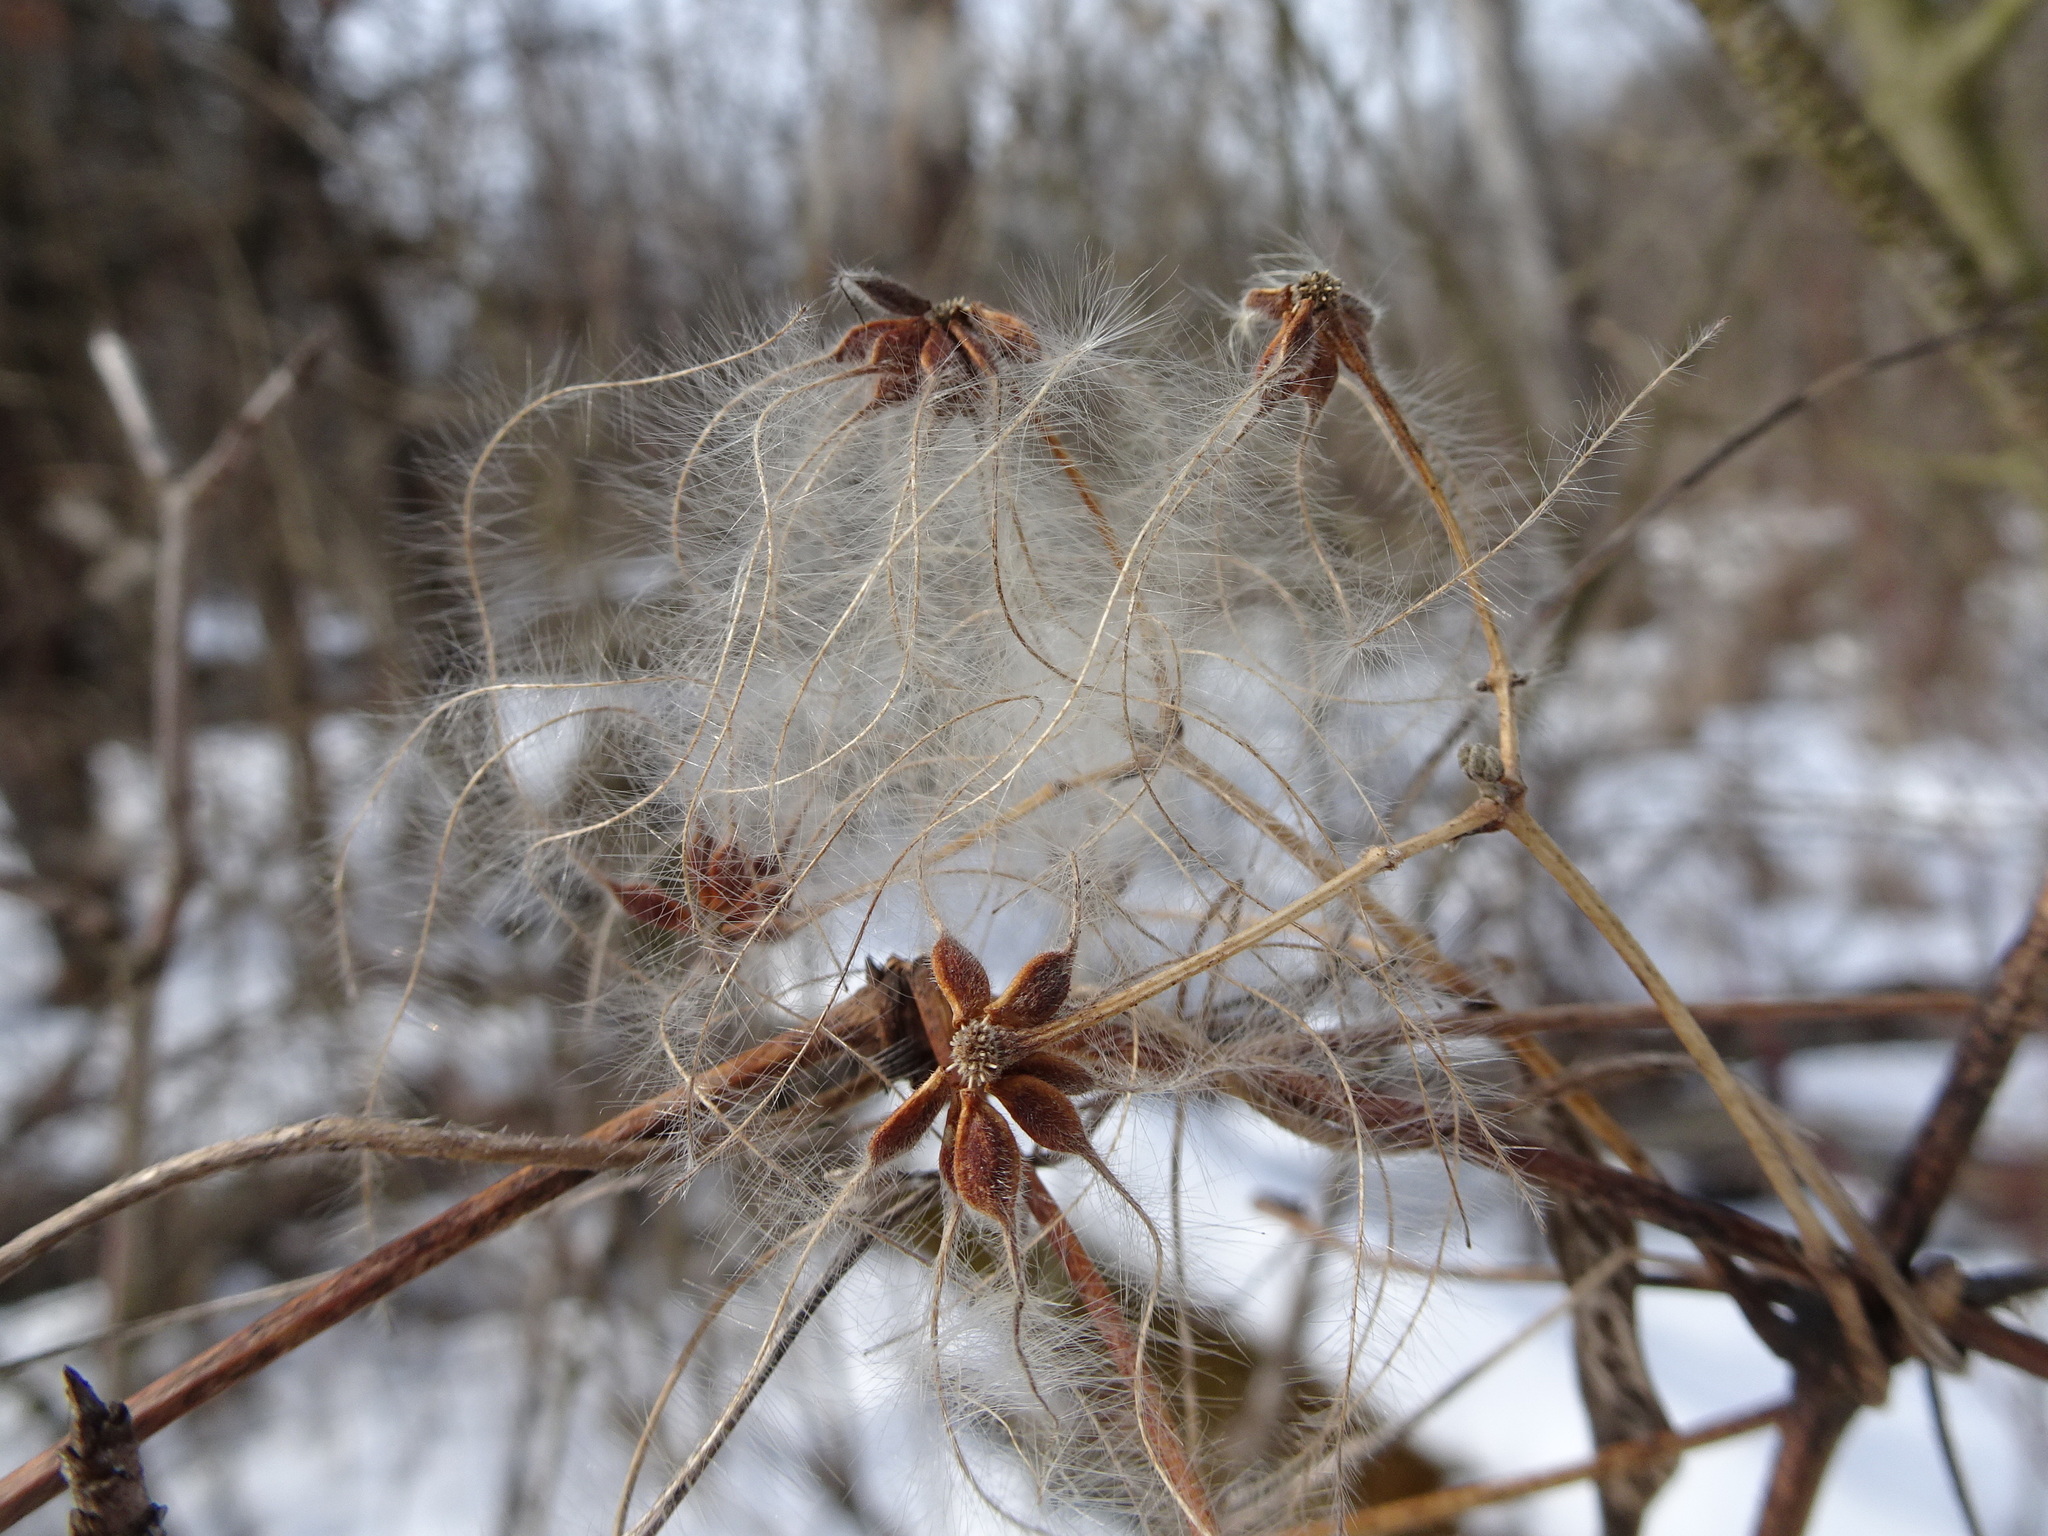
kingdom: Plantae
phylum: Tracheophyta
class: Magnoliopsida
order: Ranunculales
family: Ranunculaceae
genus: Clematis
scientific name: Clematis virginiana
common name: Virgin's-bower
